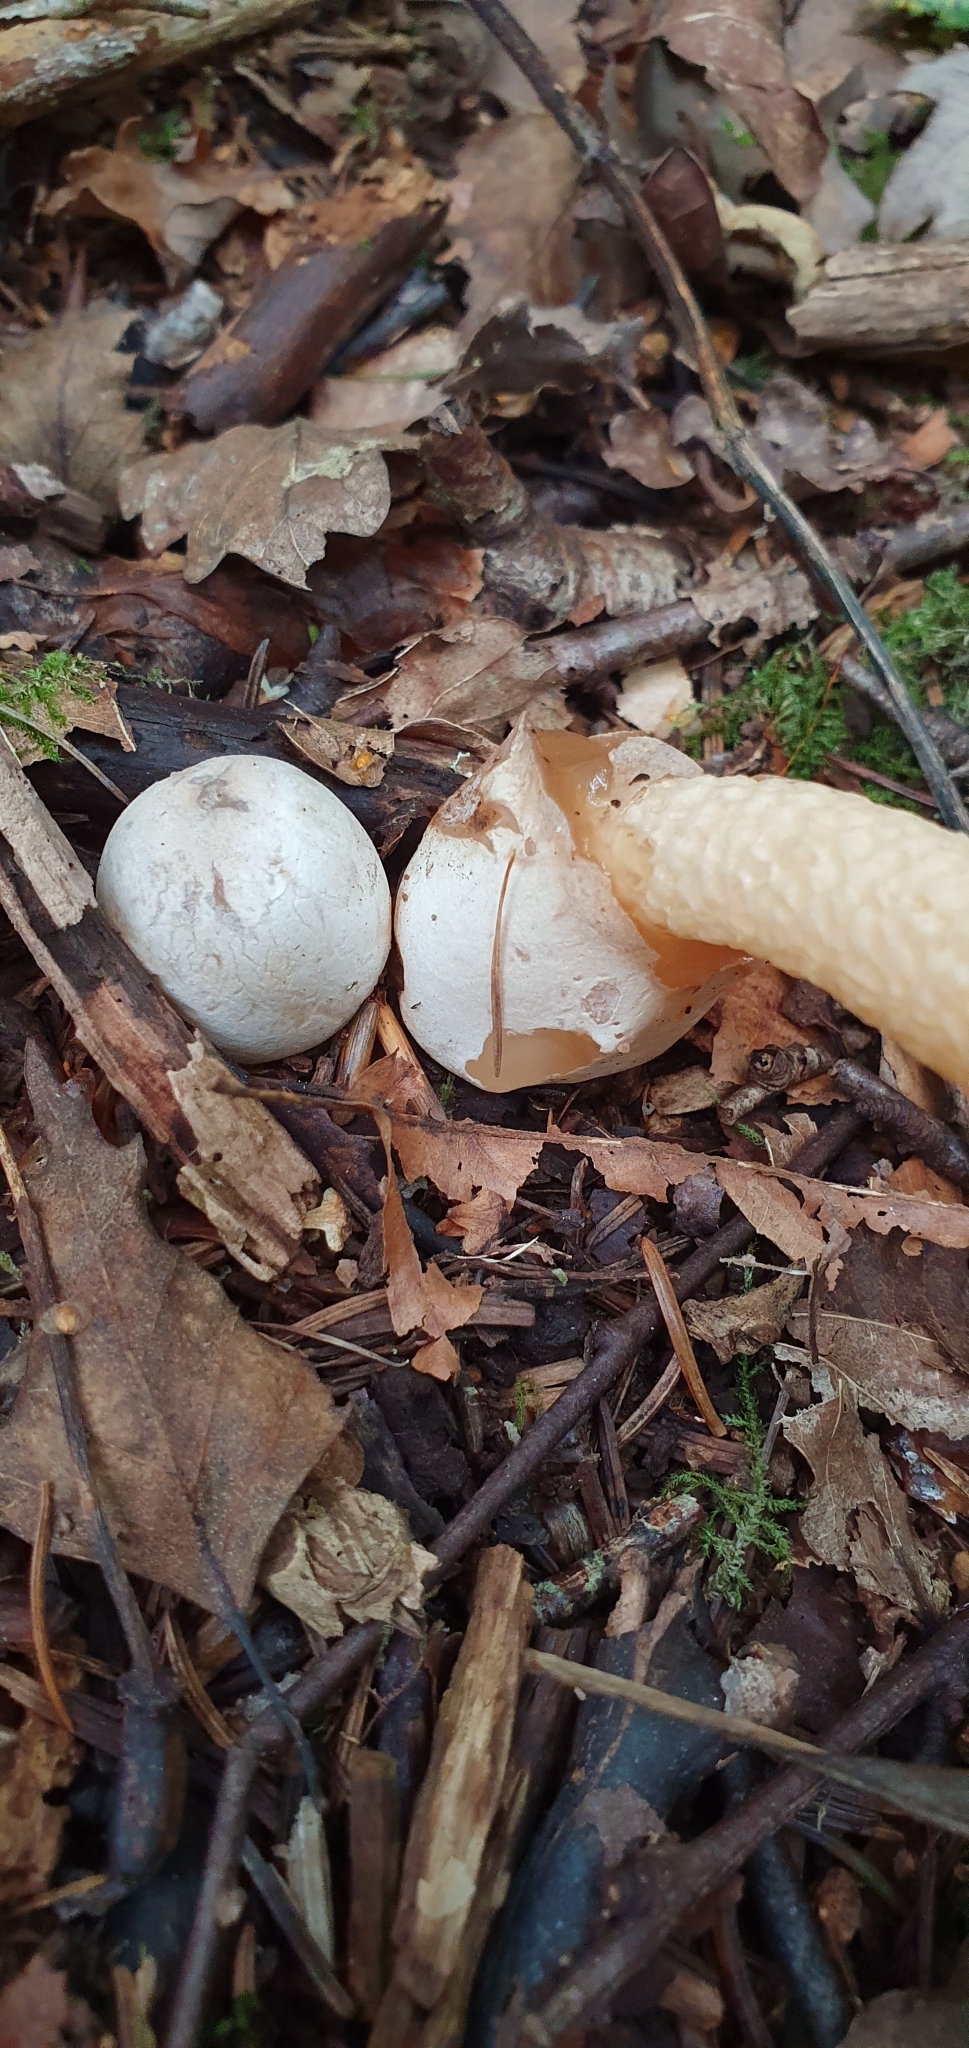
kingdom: Fungi
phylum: Basidiomycota
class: Agaricomycetes
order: Phallales
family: Phallaceae
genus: Mutinus
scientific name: Mutinus caninus
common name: Dog stinkhorn
